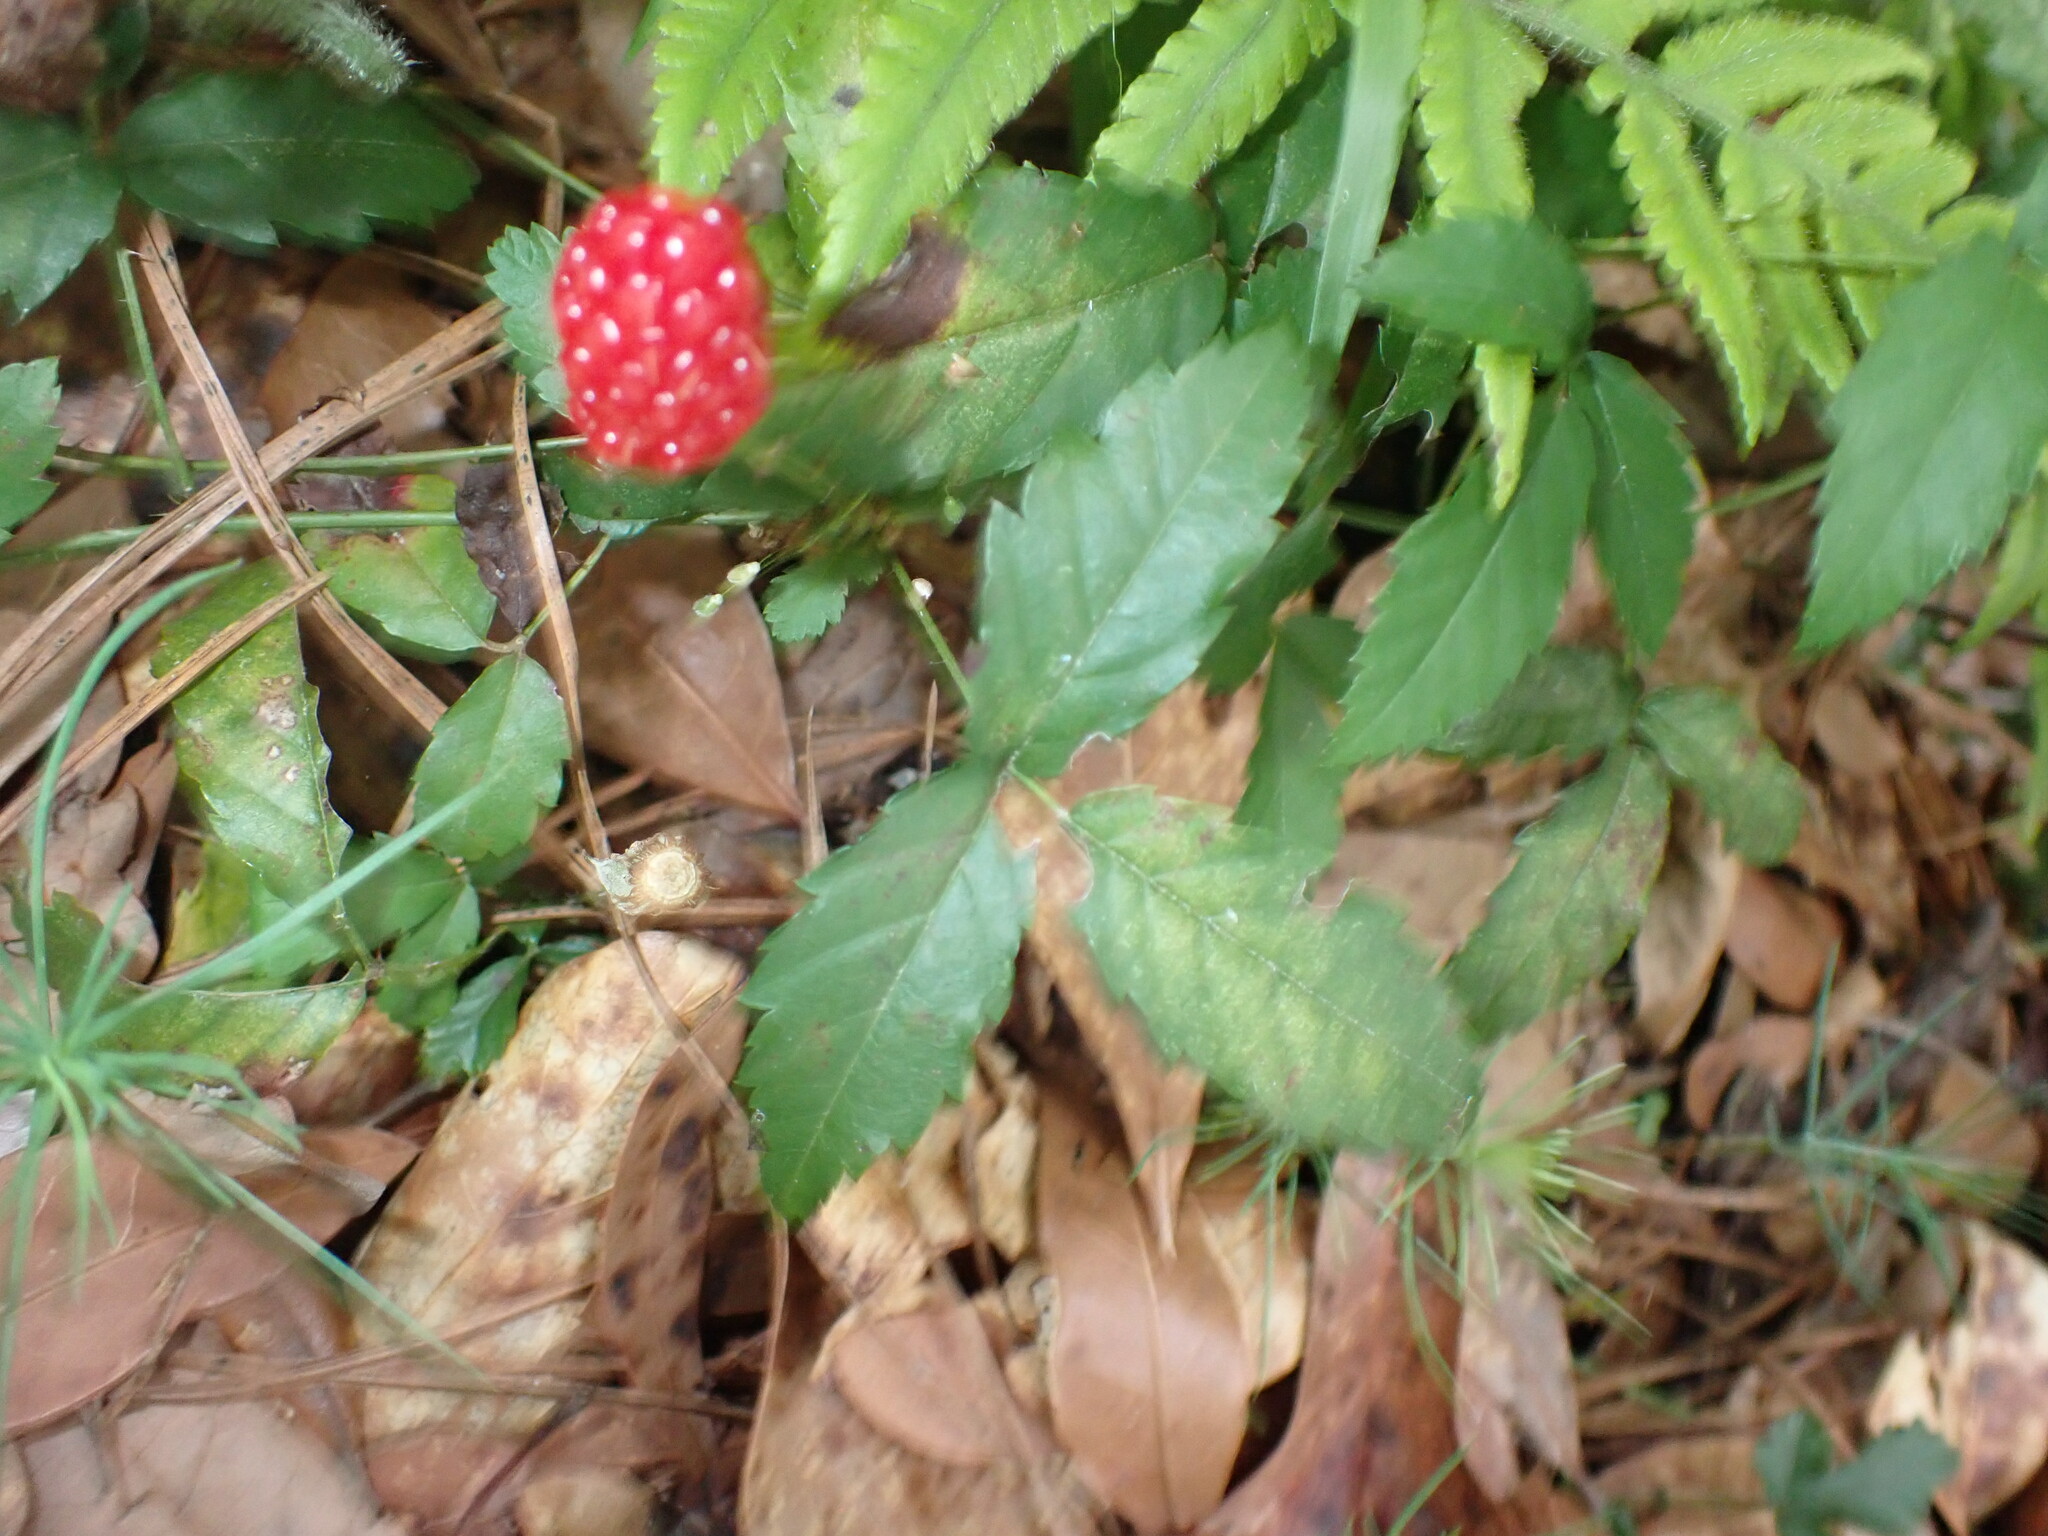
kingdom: Plantae
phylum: Tracheophyta
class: Magnoliopsida
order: Rosales
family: Rosaceae
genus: Rubus
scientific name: Rubus trivialis
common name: Southern dewberry
